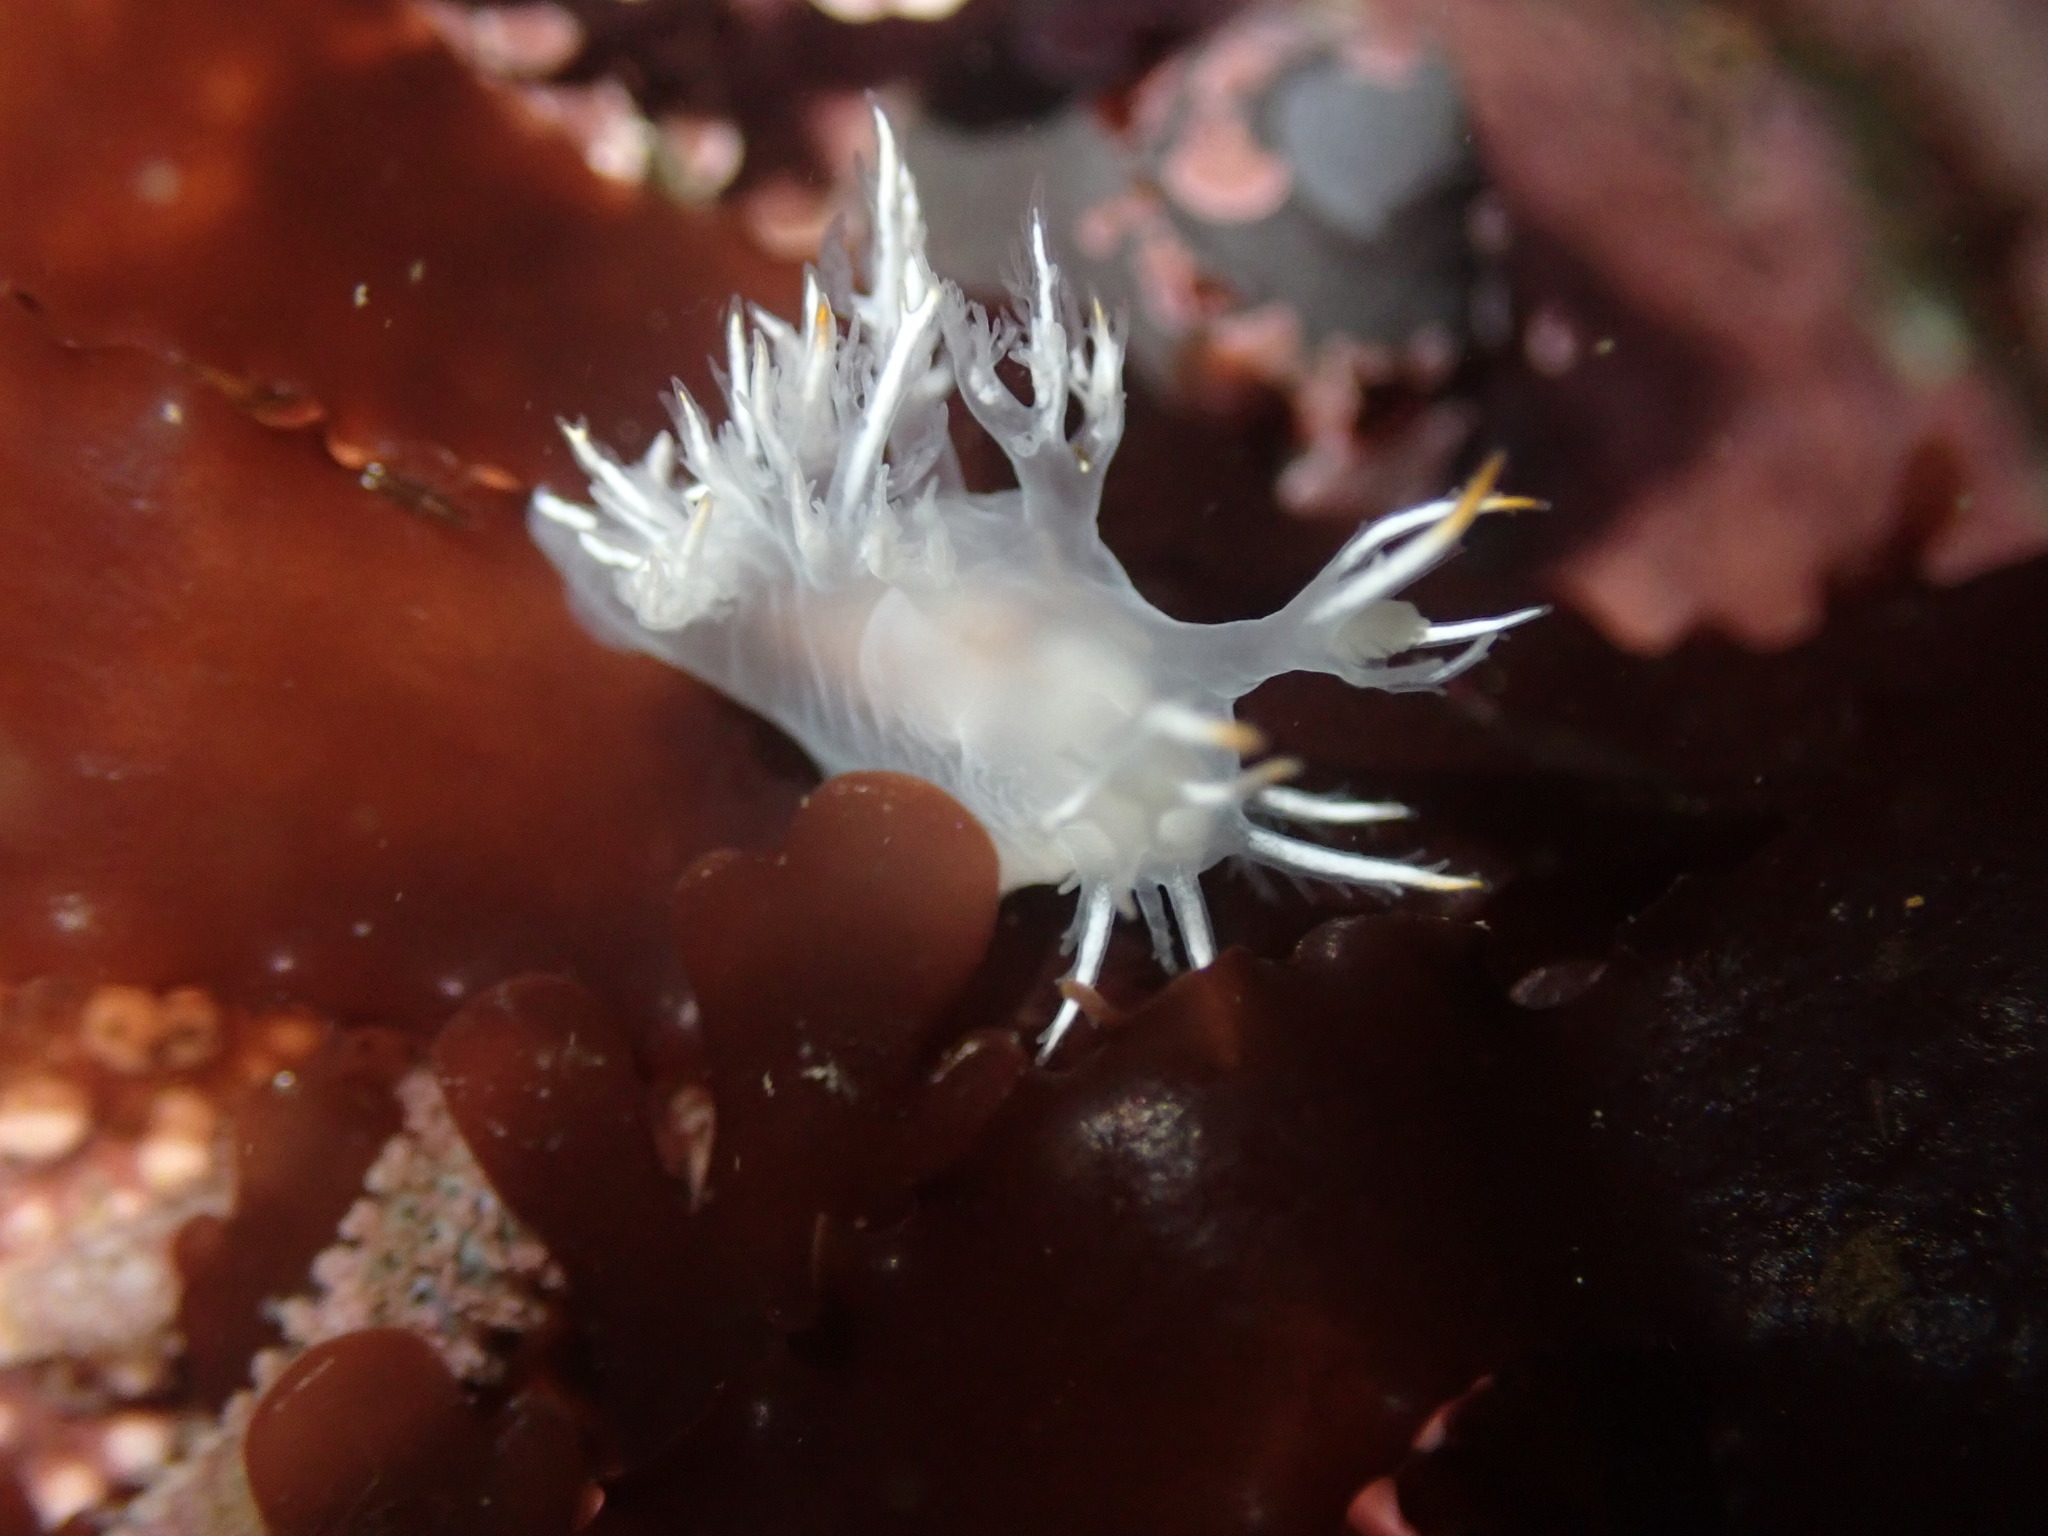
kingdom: Animalia
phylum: Mollusca
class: Gastropoda
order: Nudibranchia
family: Dendronotidae
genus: Dendronotus
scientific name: Dendronotus albus
